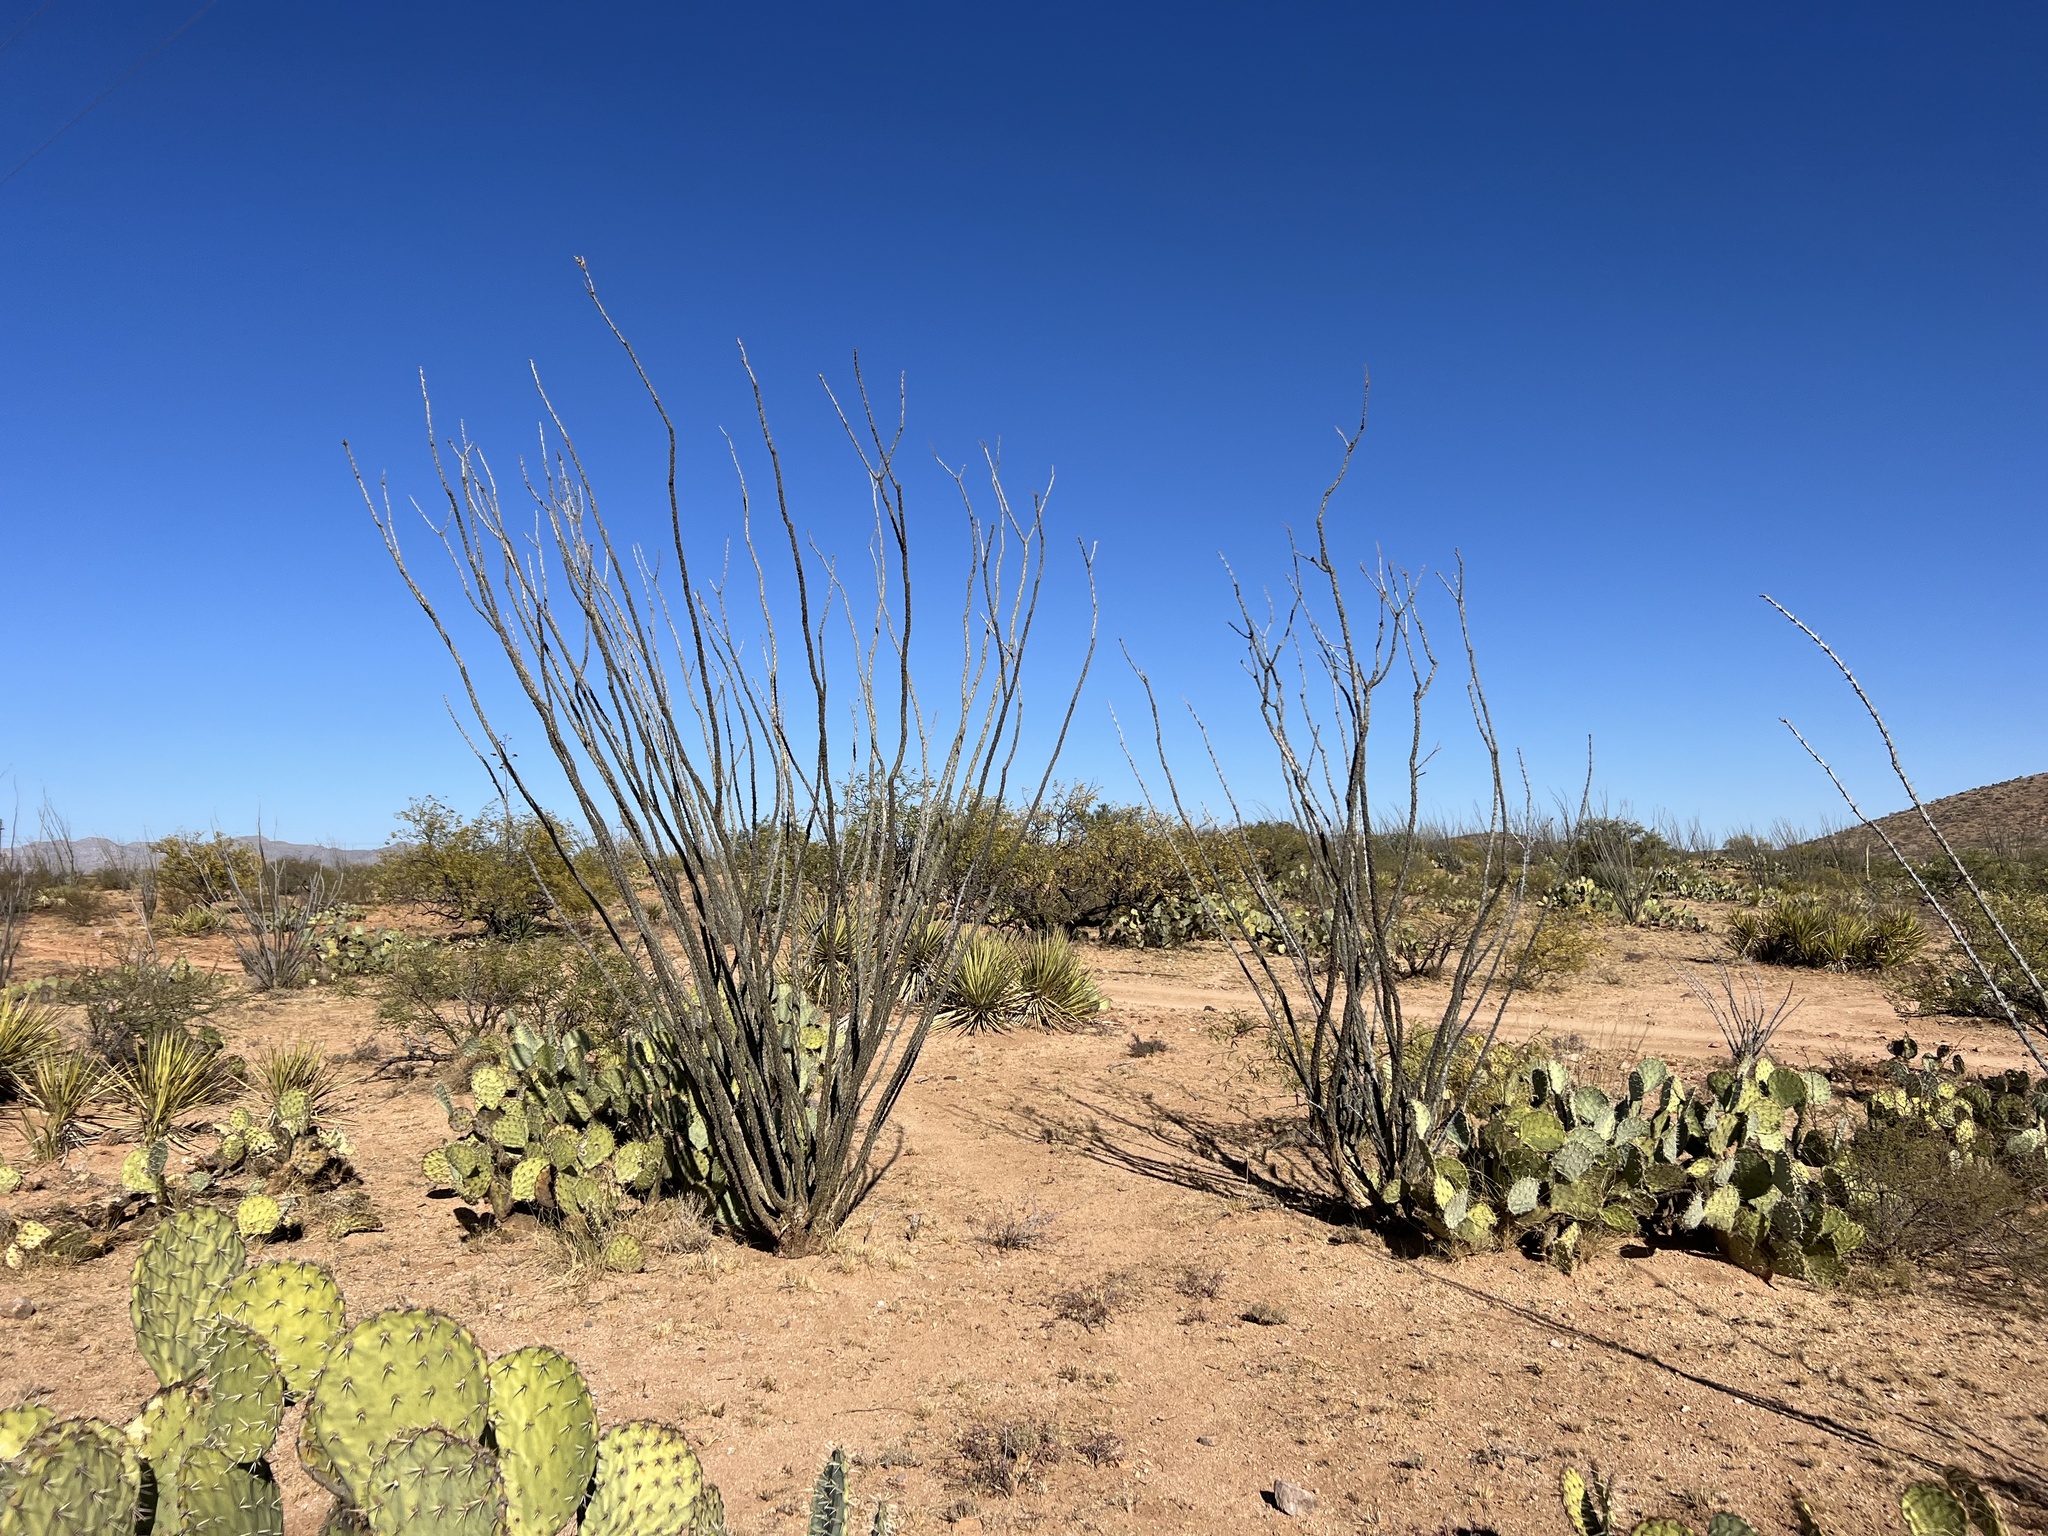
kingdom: Plantae
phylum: Tracheophyta
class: Magnoliopsida
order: Ericales
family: Fouquieriaceae
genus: Fouquieria
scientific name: Fouquieria splendens
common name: Vine-cactus
